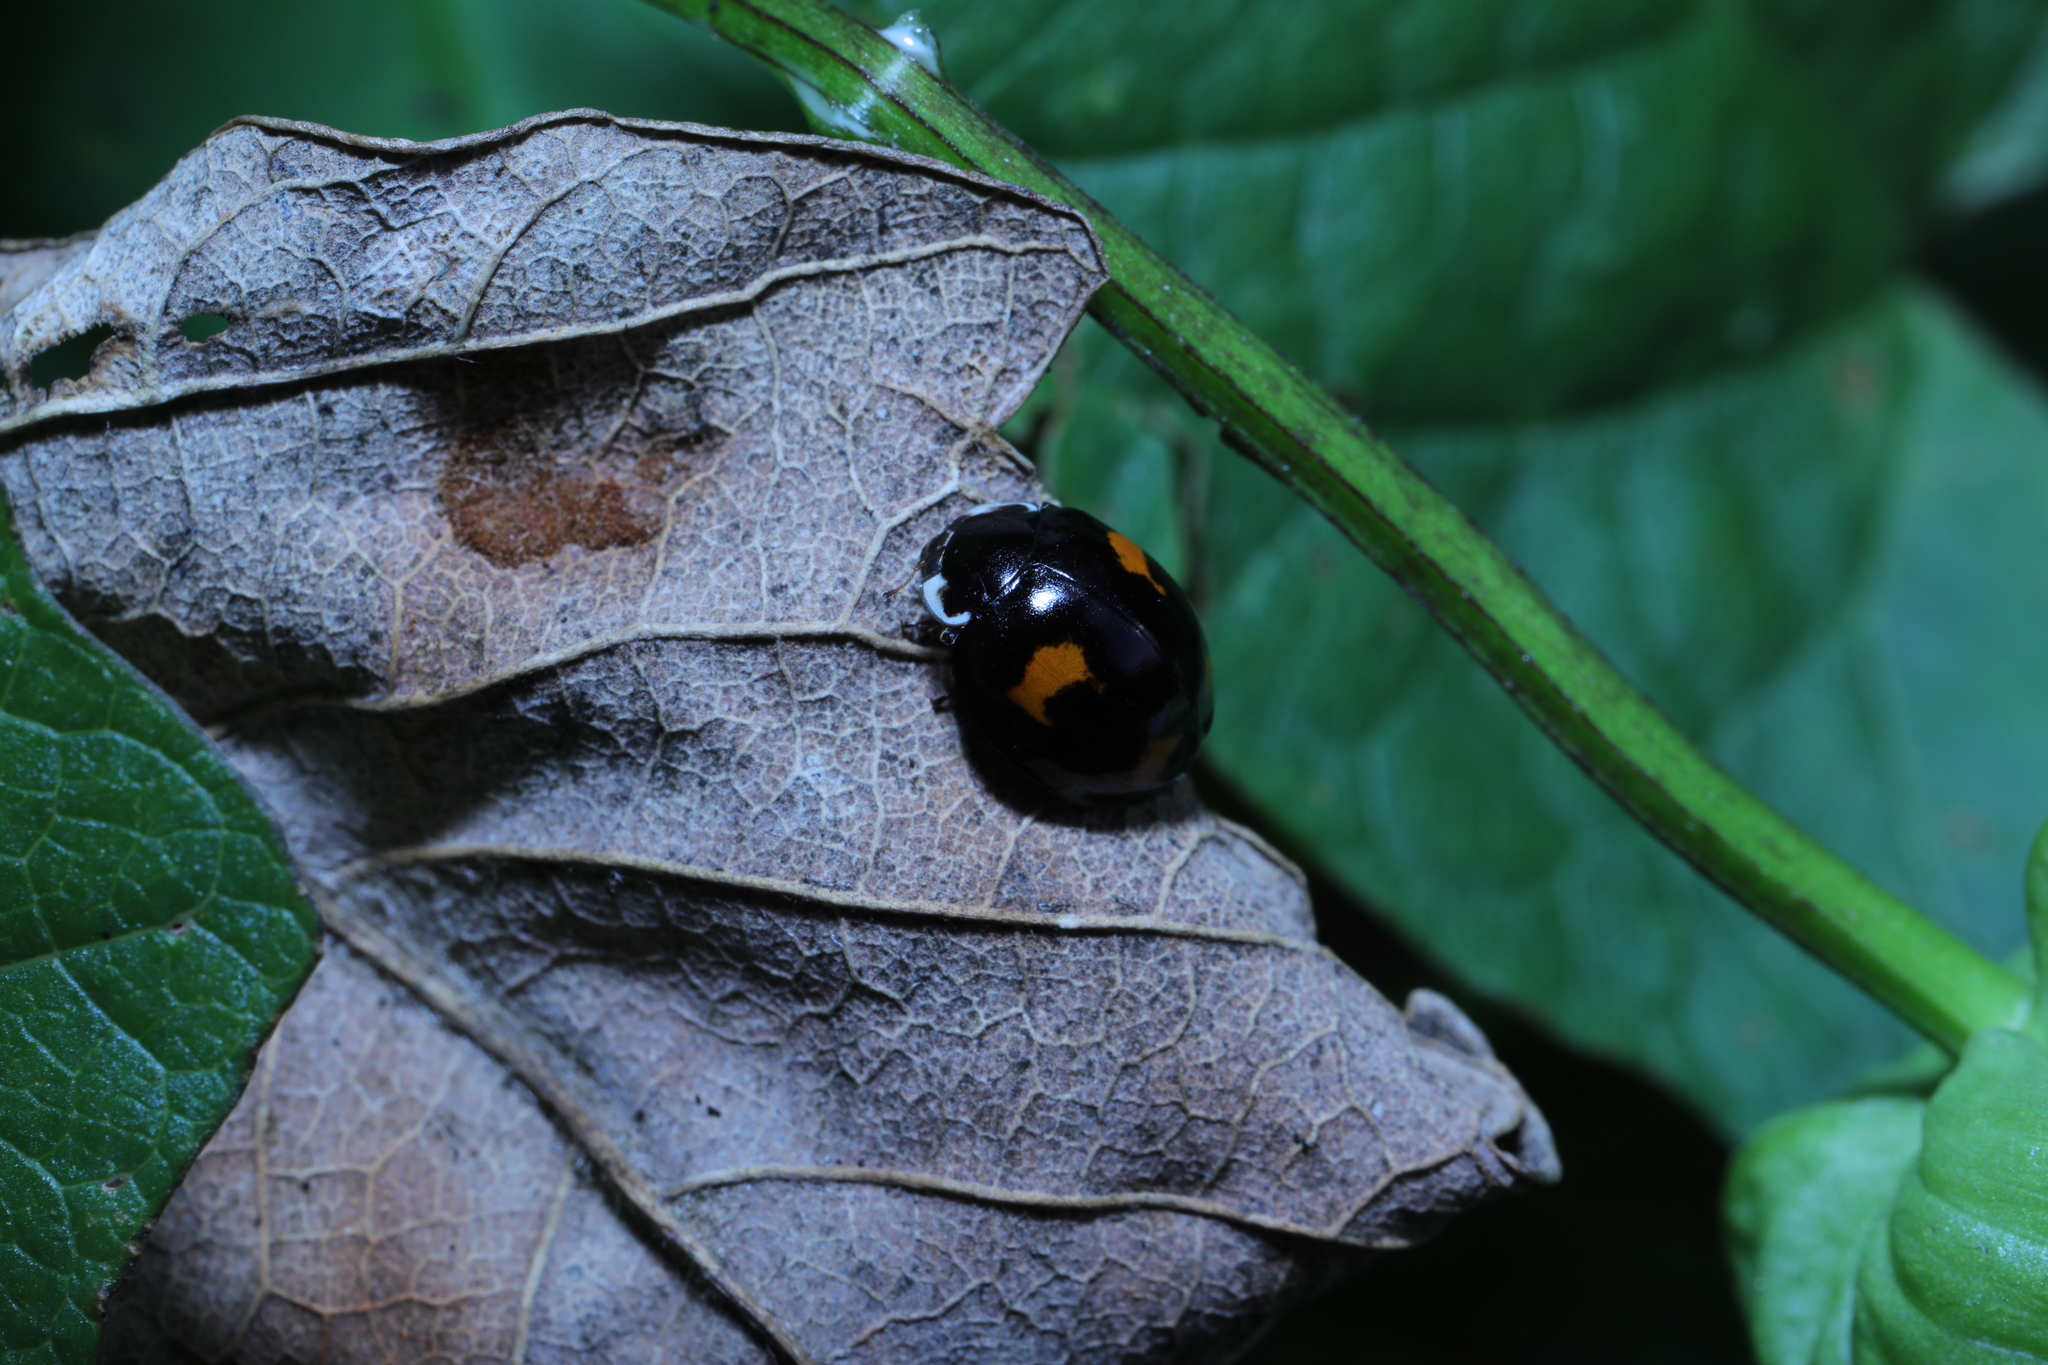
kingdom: Animalia
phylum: Arthropoda
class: Insecta
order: Coleoptera
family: Coccinellidae
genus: Harmonia
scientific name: Harmonia axyridis
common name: Harlequin ladybird
